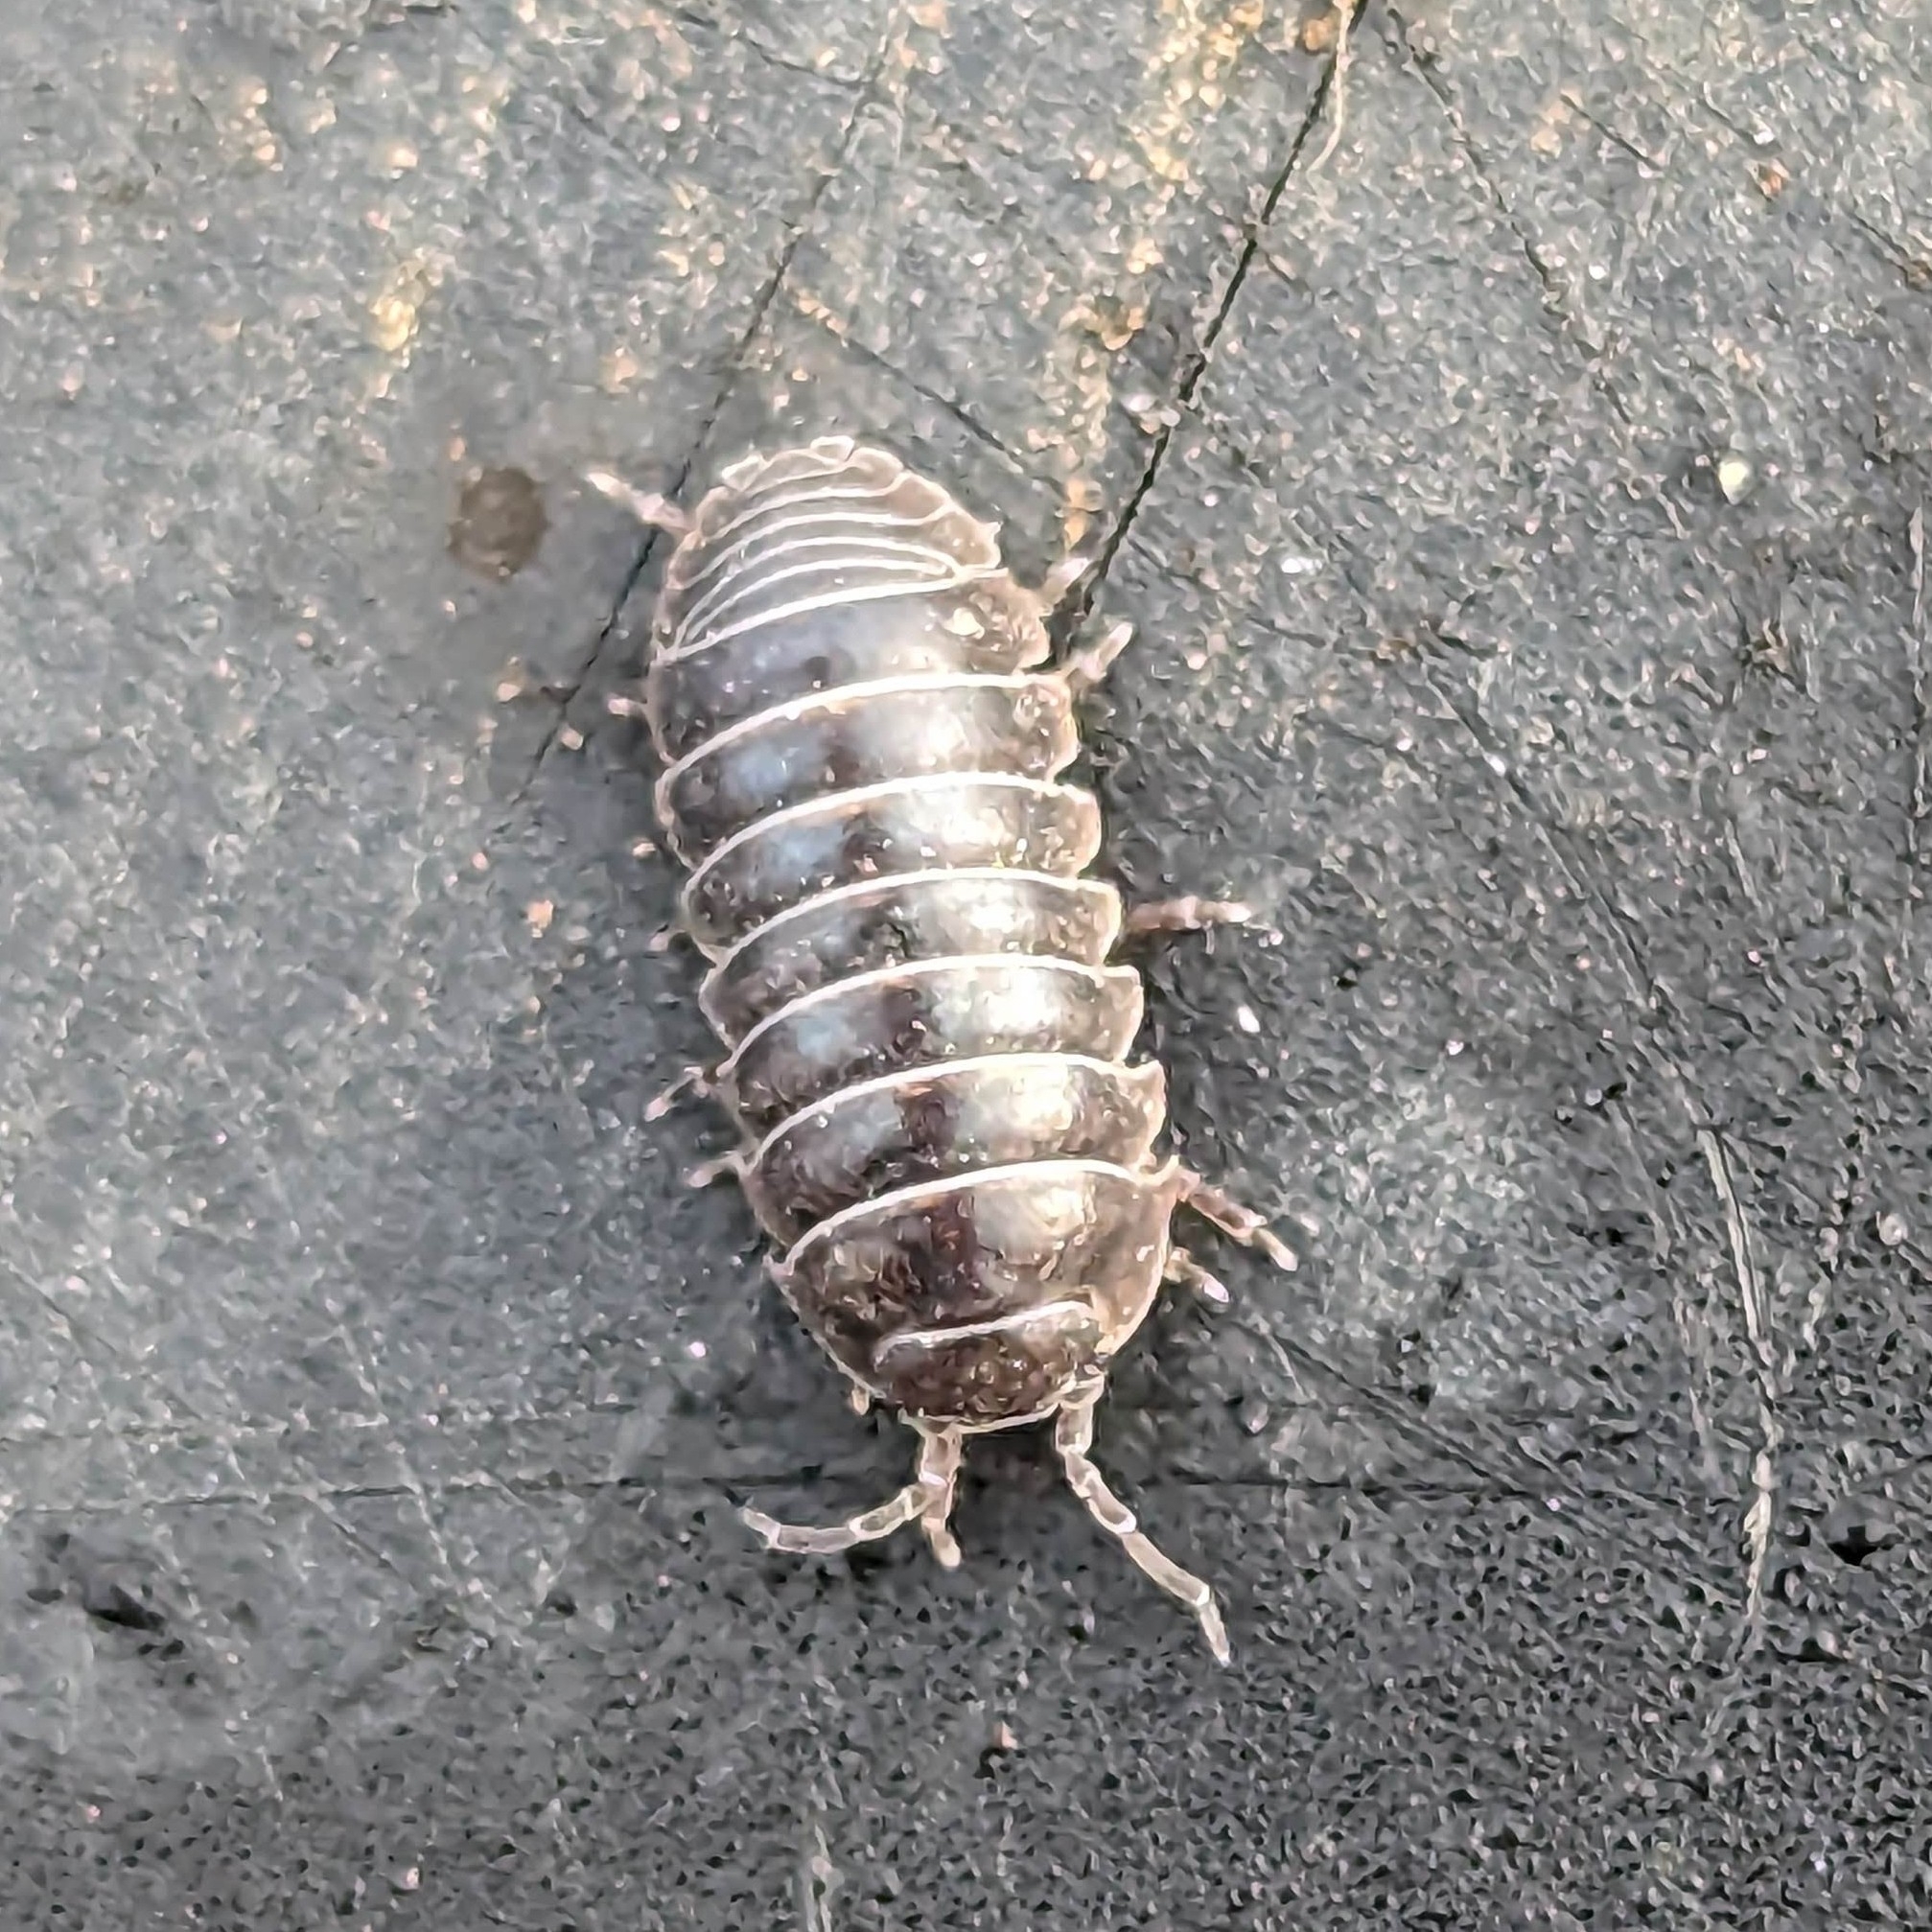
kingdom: Animalia
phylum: Arthropoda
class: Malacostraca
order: Isopoda
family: Armadillidiidae
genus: Armadillidium
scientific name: Armadillidium vulgare
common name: Common pill woodlouse
